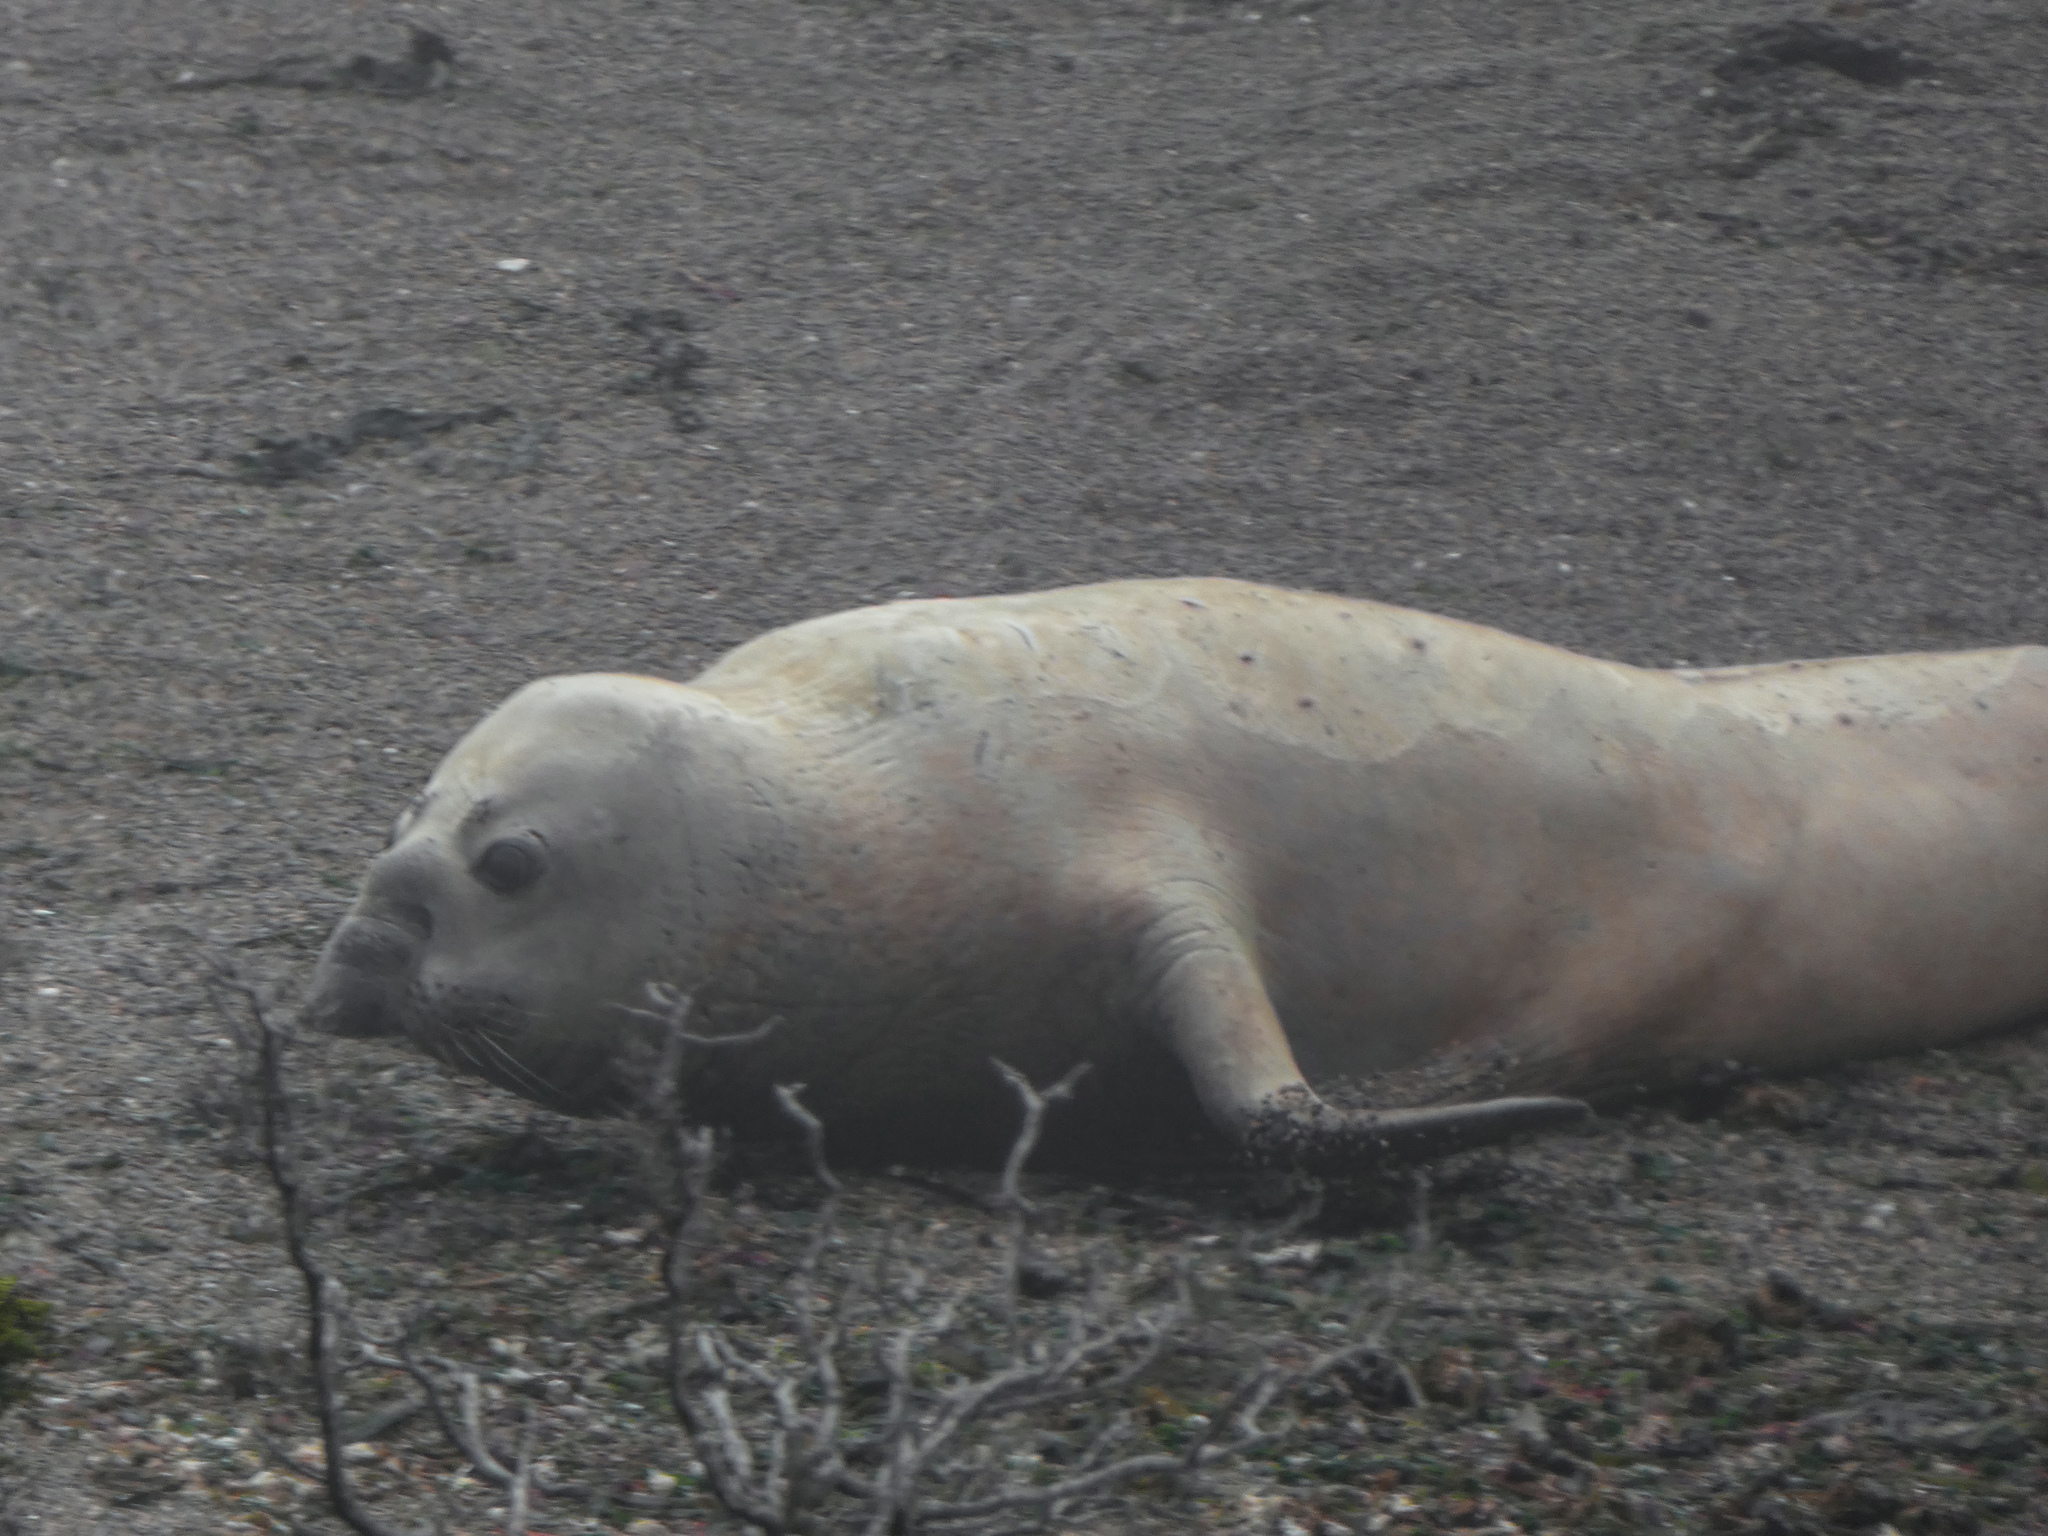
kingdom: Animalia
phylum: Chordata
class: Mammalia
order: Carnivora
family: Phocidae
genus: Mirounga
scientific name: Mirounga leonina
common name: Southern elephant seal
